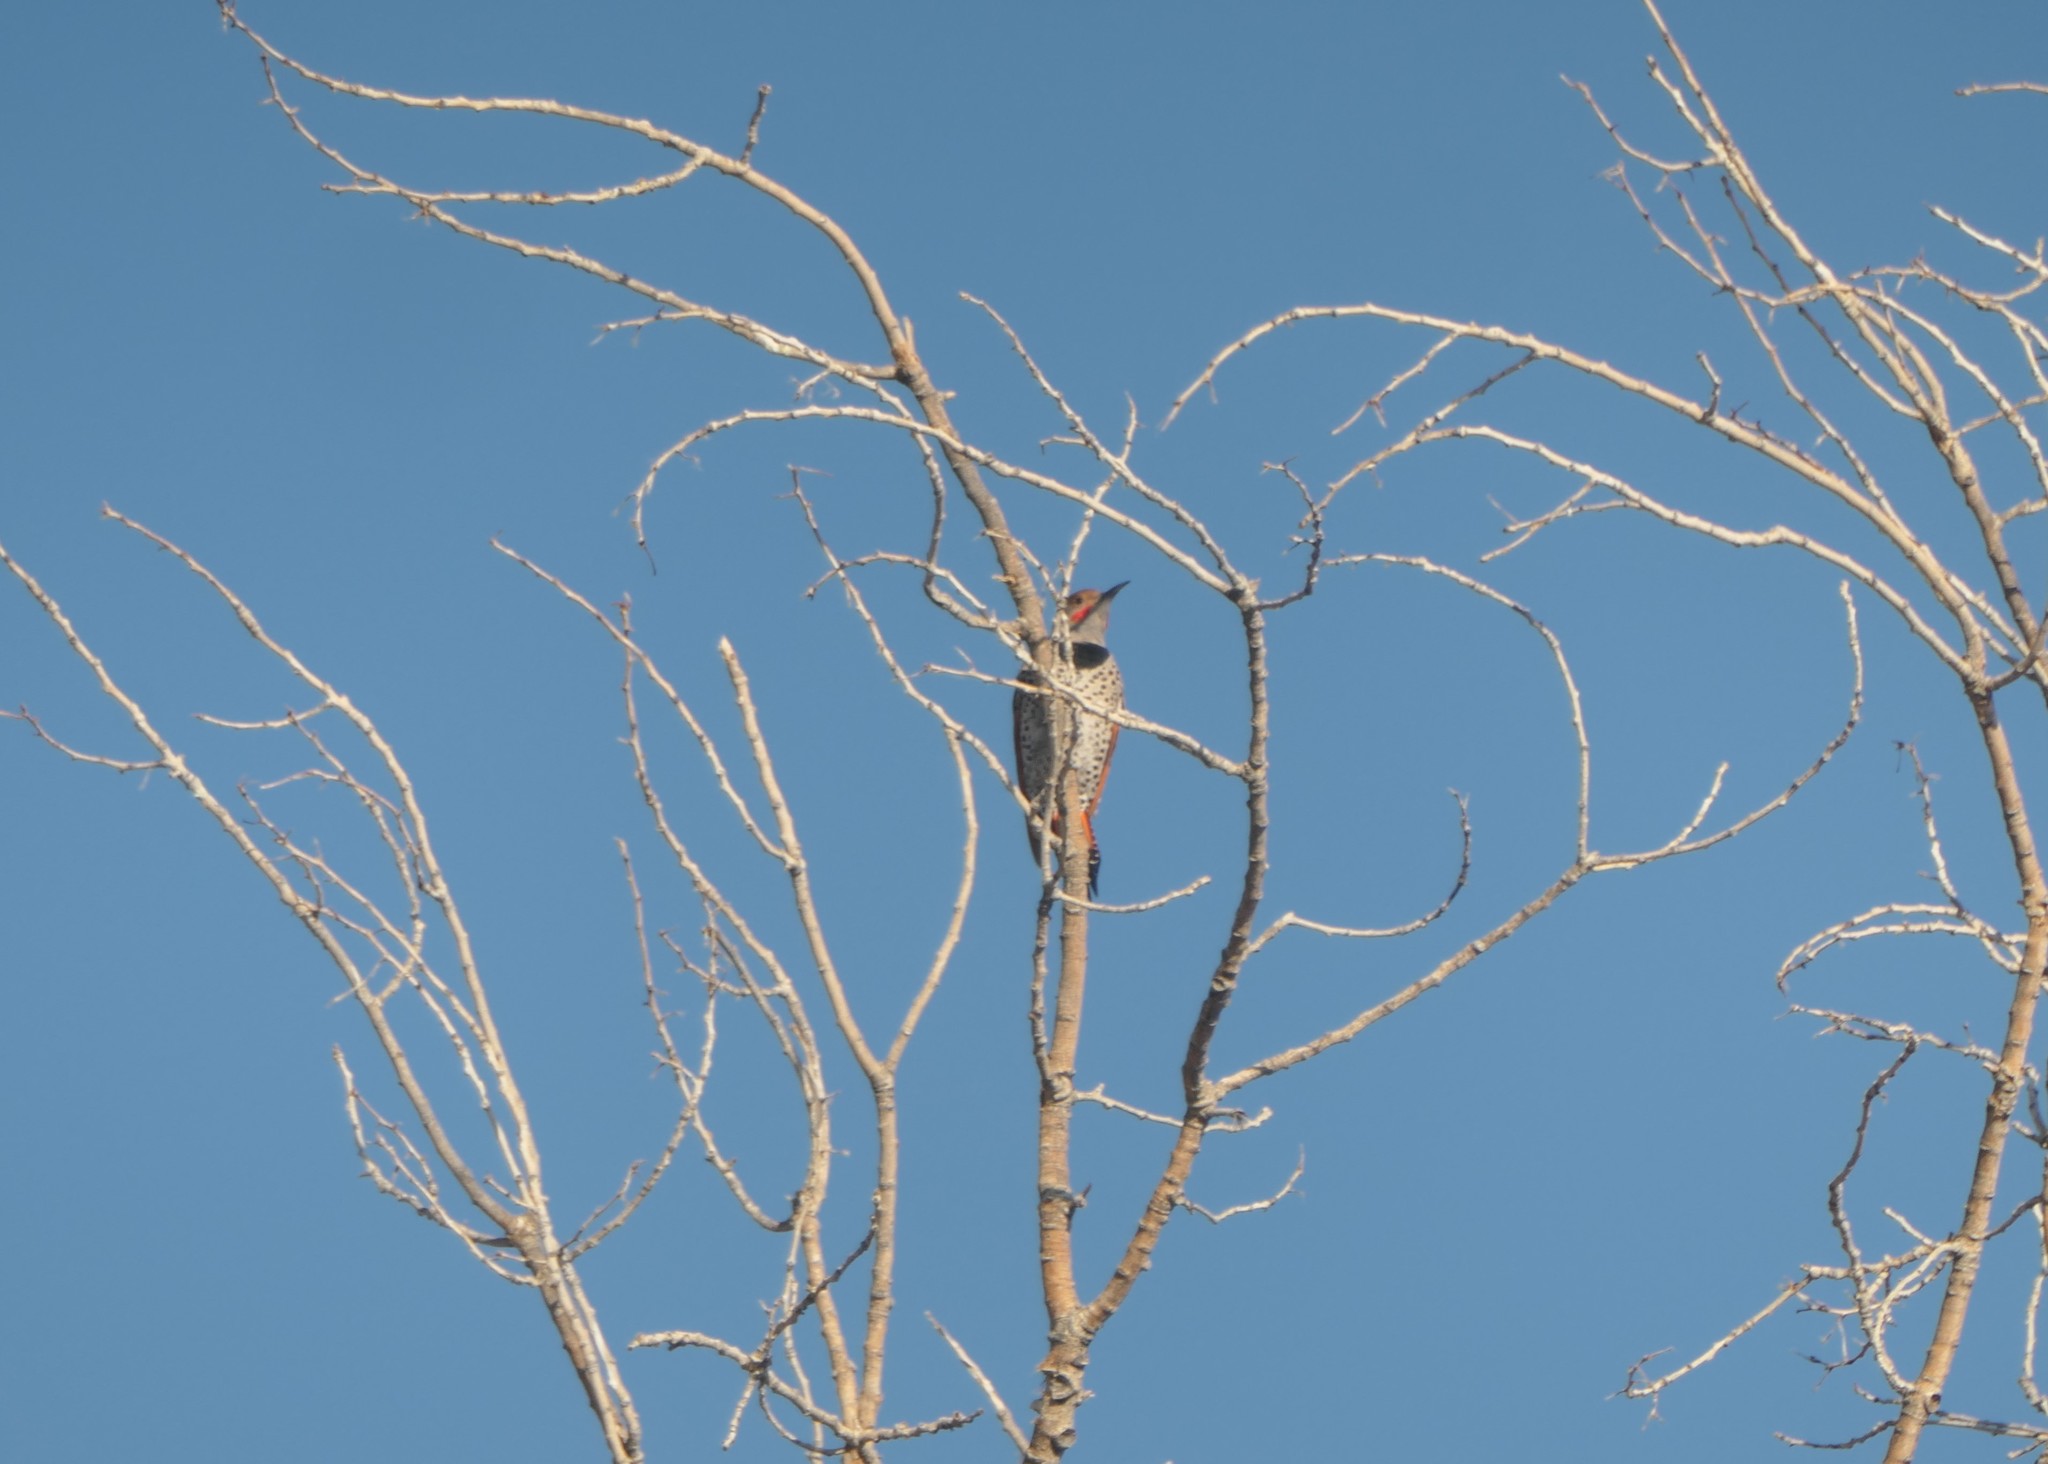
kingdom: Animalia
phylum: Chordata
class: Aves
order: Piciformes
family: Picidae
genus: Colaptes
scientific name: Colaptes auratus
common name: Northern flicker
